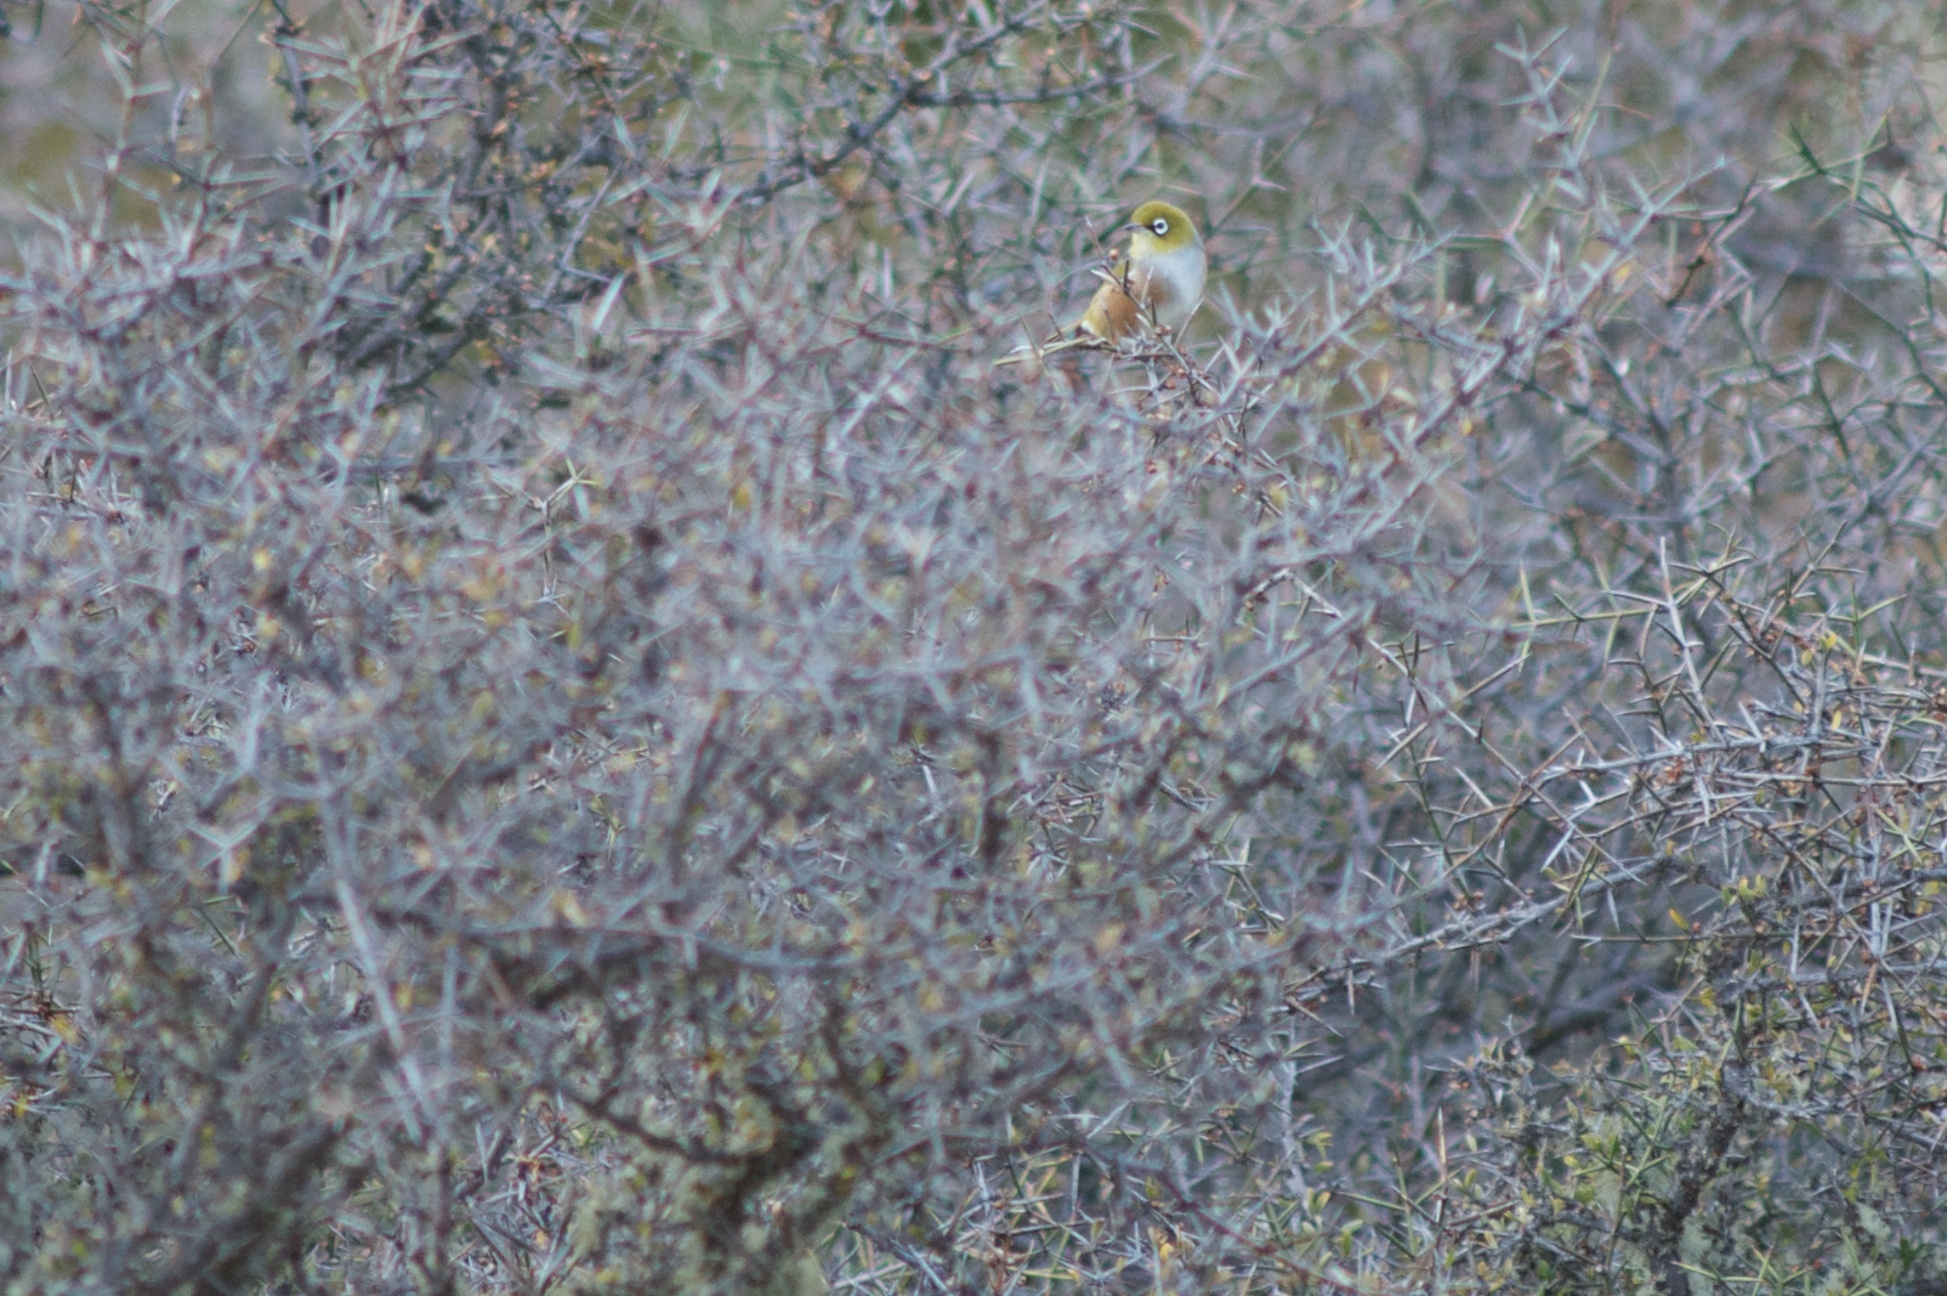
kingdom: Animalia
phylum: Chordata
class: Aves
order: Passeriformes
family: Zosteropidae
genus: Zosterops
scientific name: Zosterops lateralis
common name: Silvereye
